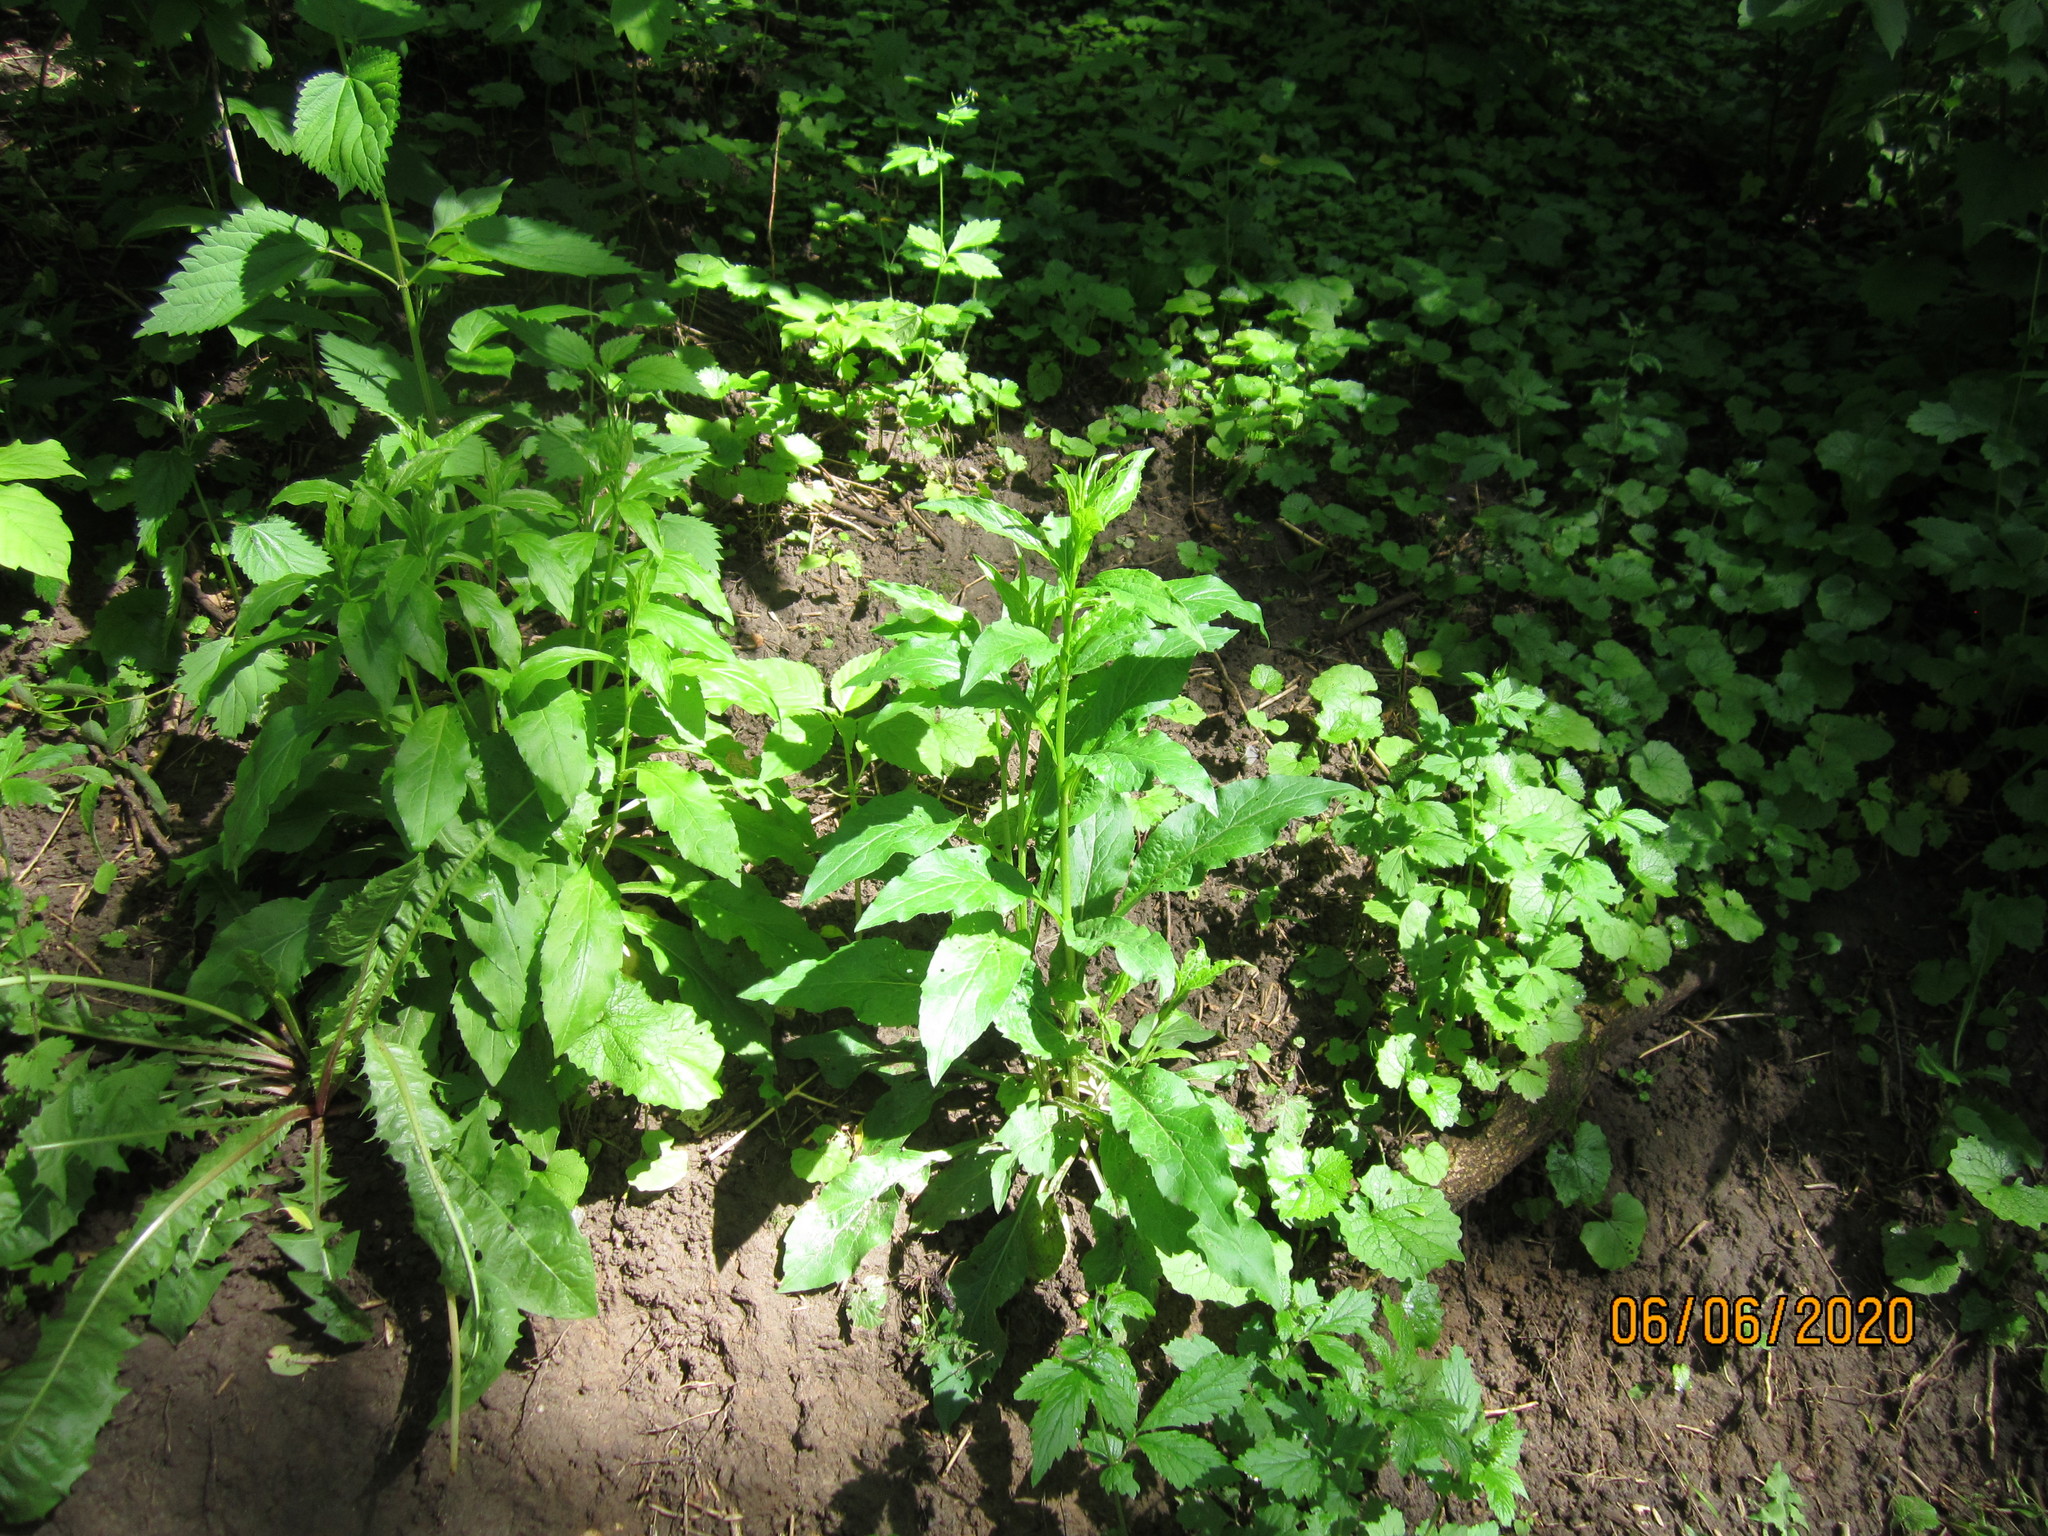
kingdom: Plantae
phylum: Tracheophyta
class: Magnoliopsida
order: Asterales
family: Asteraceae
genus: Solidago
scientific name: Solidago virgaurea
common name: Goldenrod
